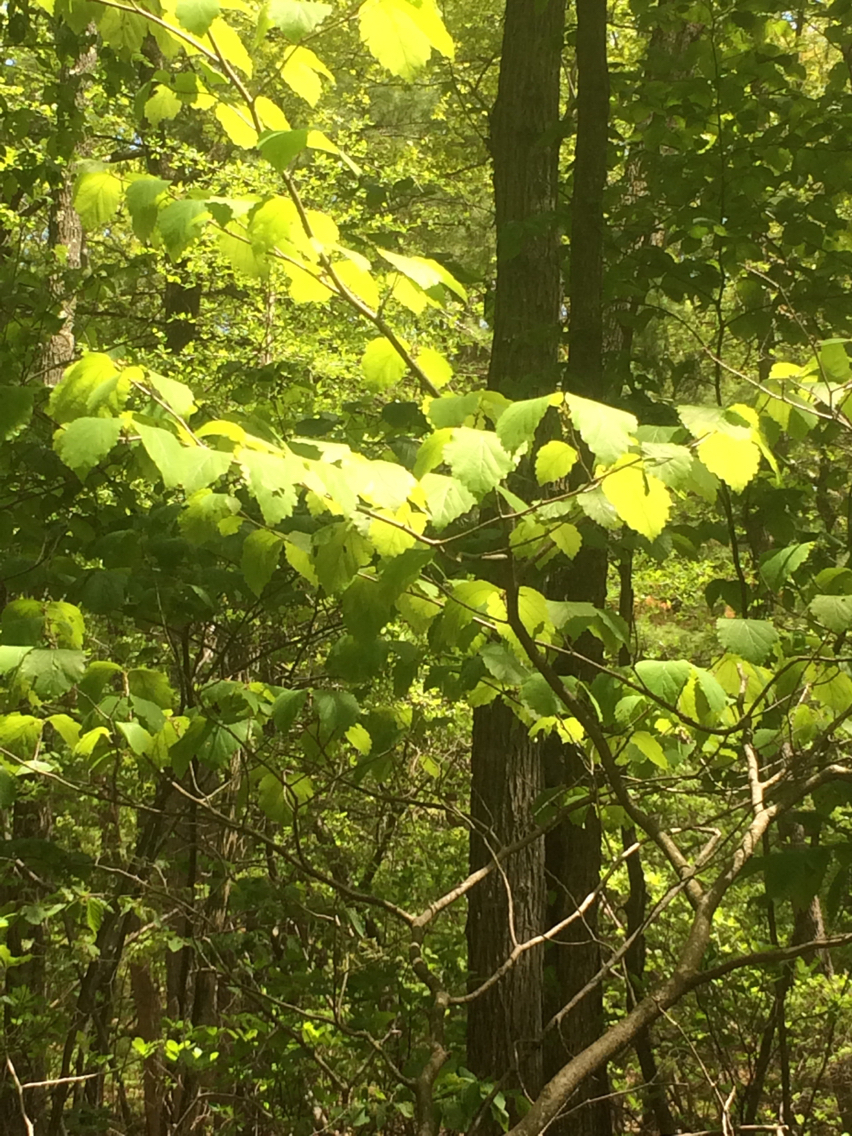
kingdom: Plantae
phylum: Tracheophyta
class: Magnoliopsida
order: Saxifragales
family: Hamamelidaceae
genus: Hamamelis
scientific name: Hamamelis virginiana
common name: Witch-hazel
